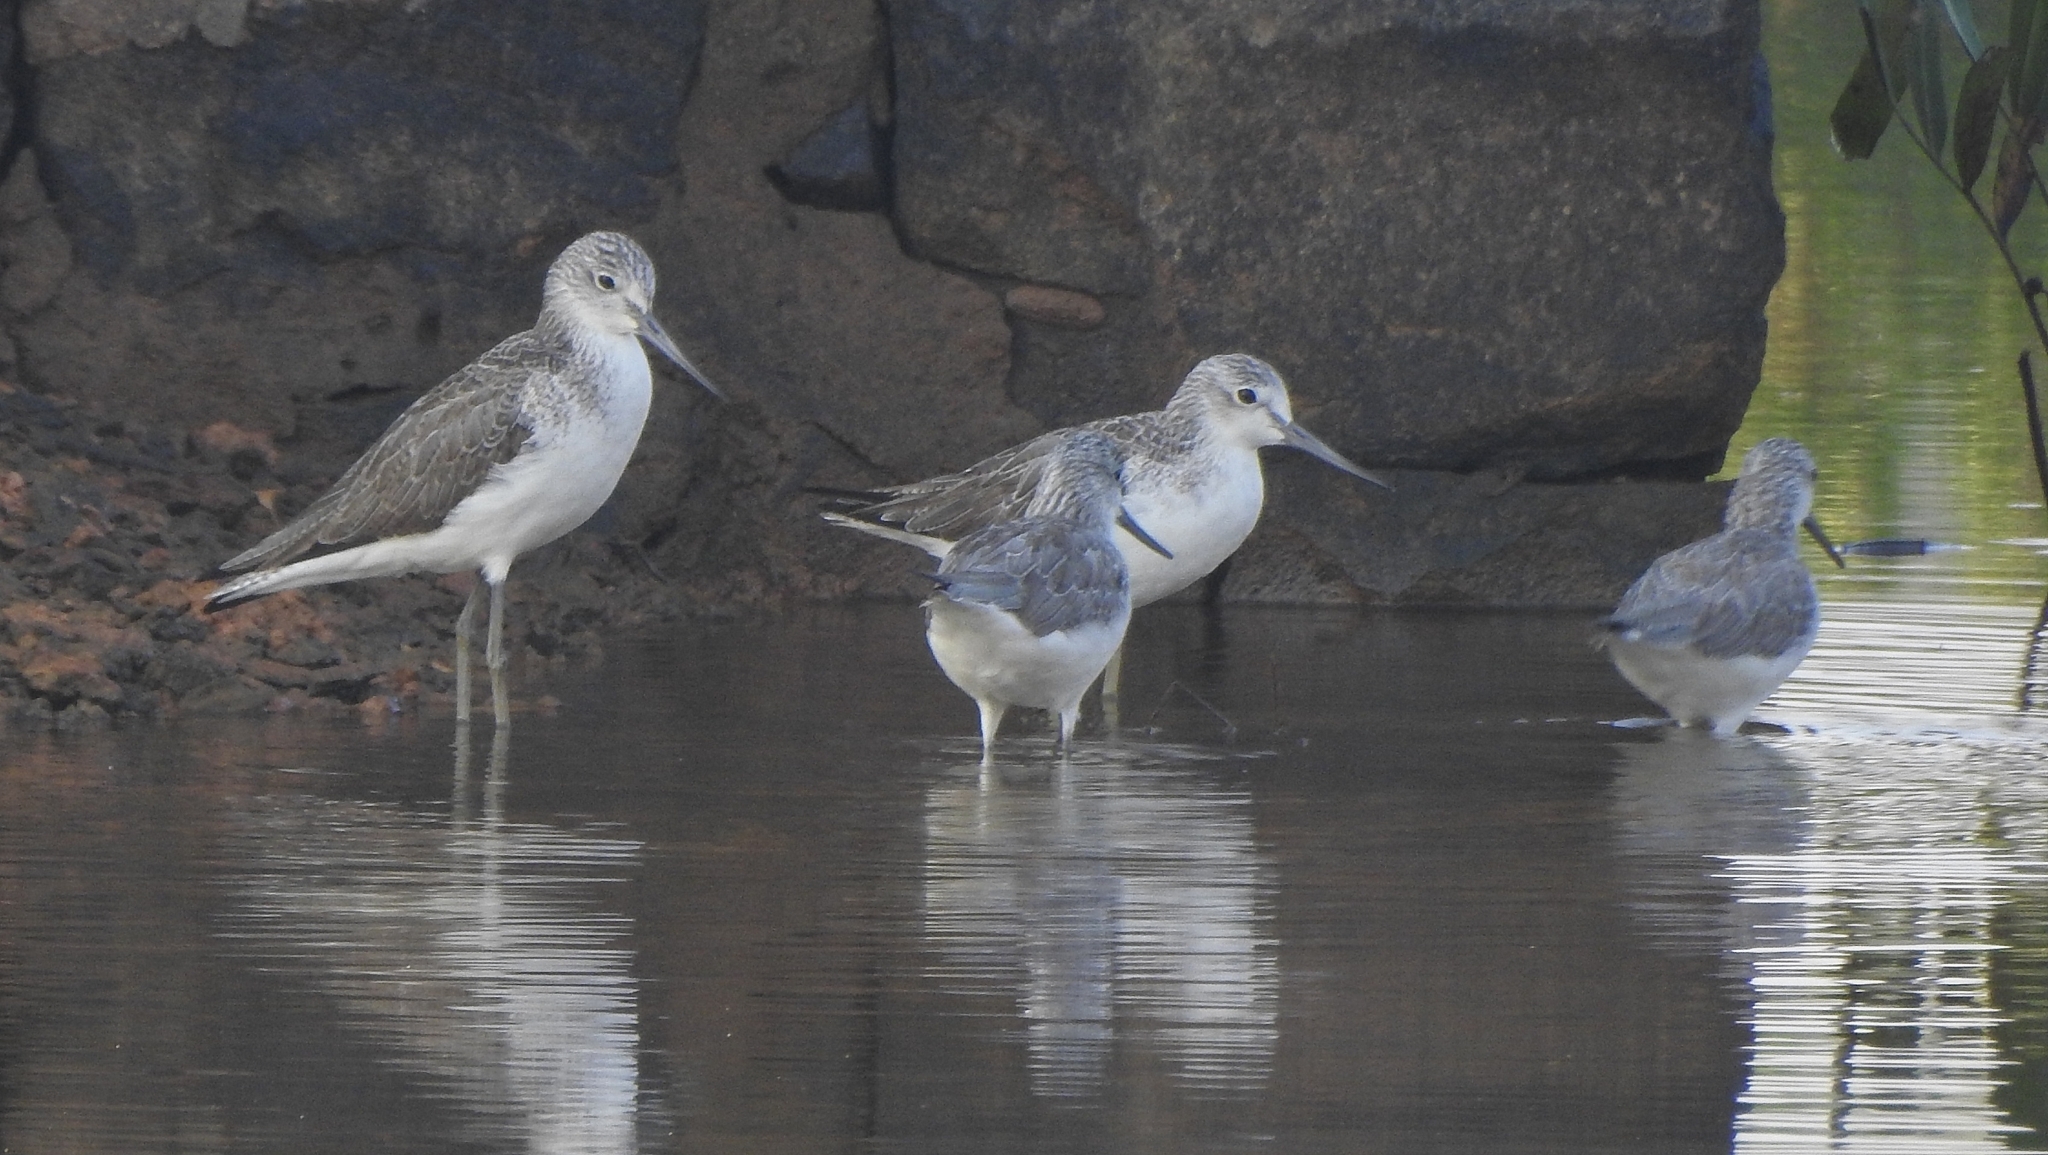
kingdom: Animalia
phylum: Chordata
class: Aves
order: Charadriiformes
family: Scolopacidae
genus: Tringa
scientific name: Tringa nebularia
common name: Common greenshank
